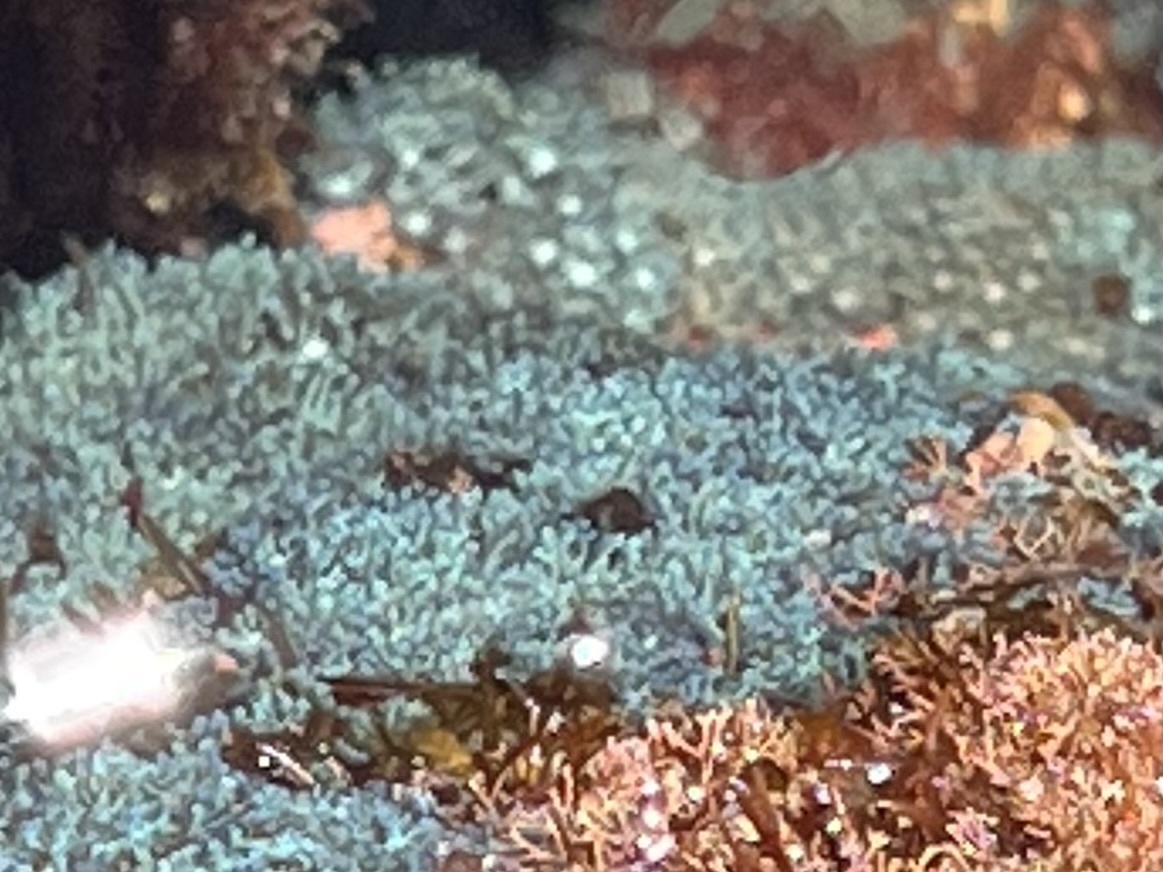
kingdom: Animalia
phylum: Cnidaria
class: Anthozoa
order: Malacalcyonacea
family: Xeniidae
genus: Sarcothelia
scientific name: Sarcothelia edmondsoni
